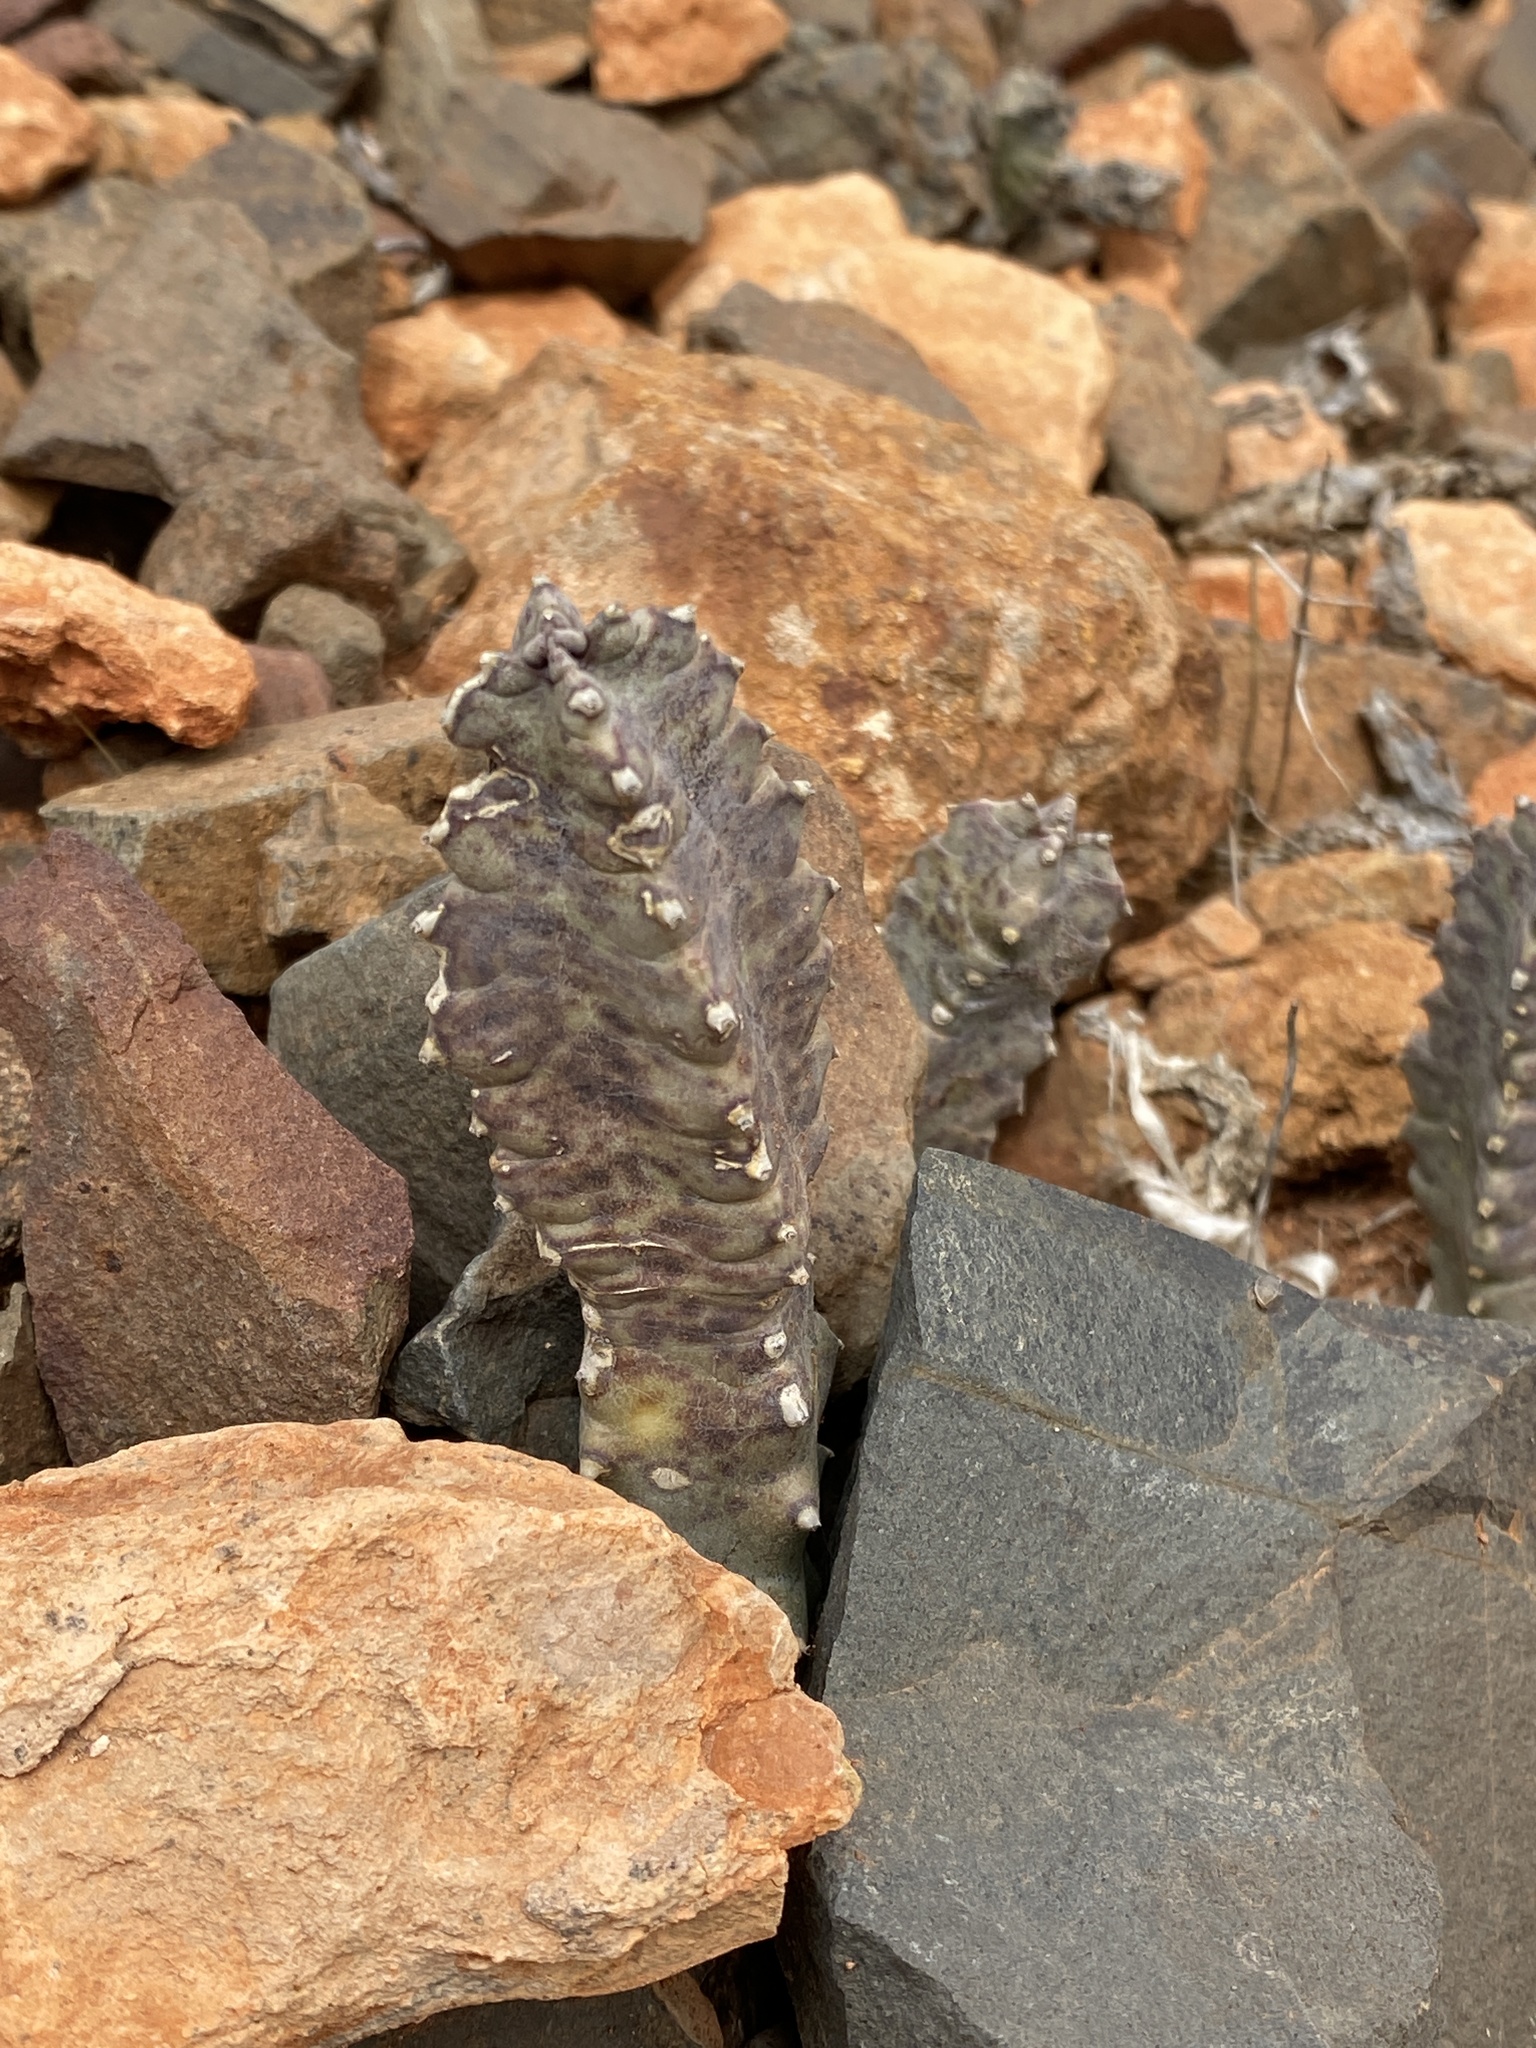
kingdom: Plantae
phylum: Tracheophyta
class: Magnoliopsida
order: Gentianales
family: Apocynaceae
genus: Ceropegia
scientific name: Ceropegia burchardii
